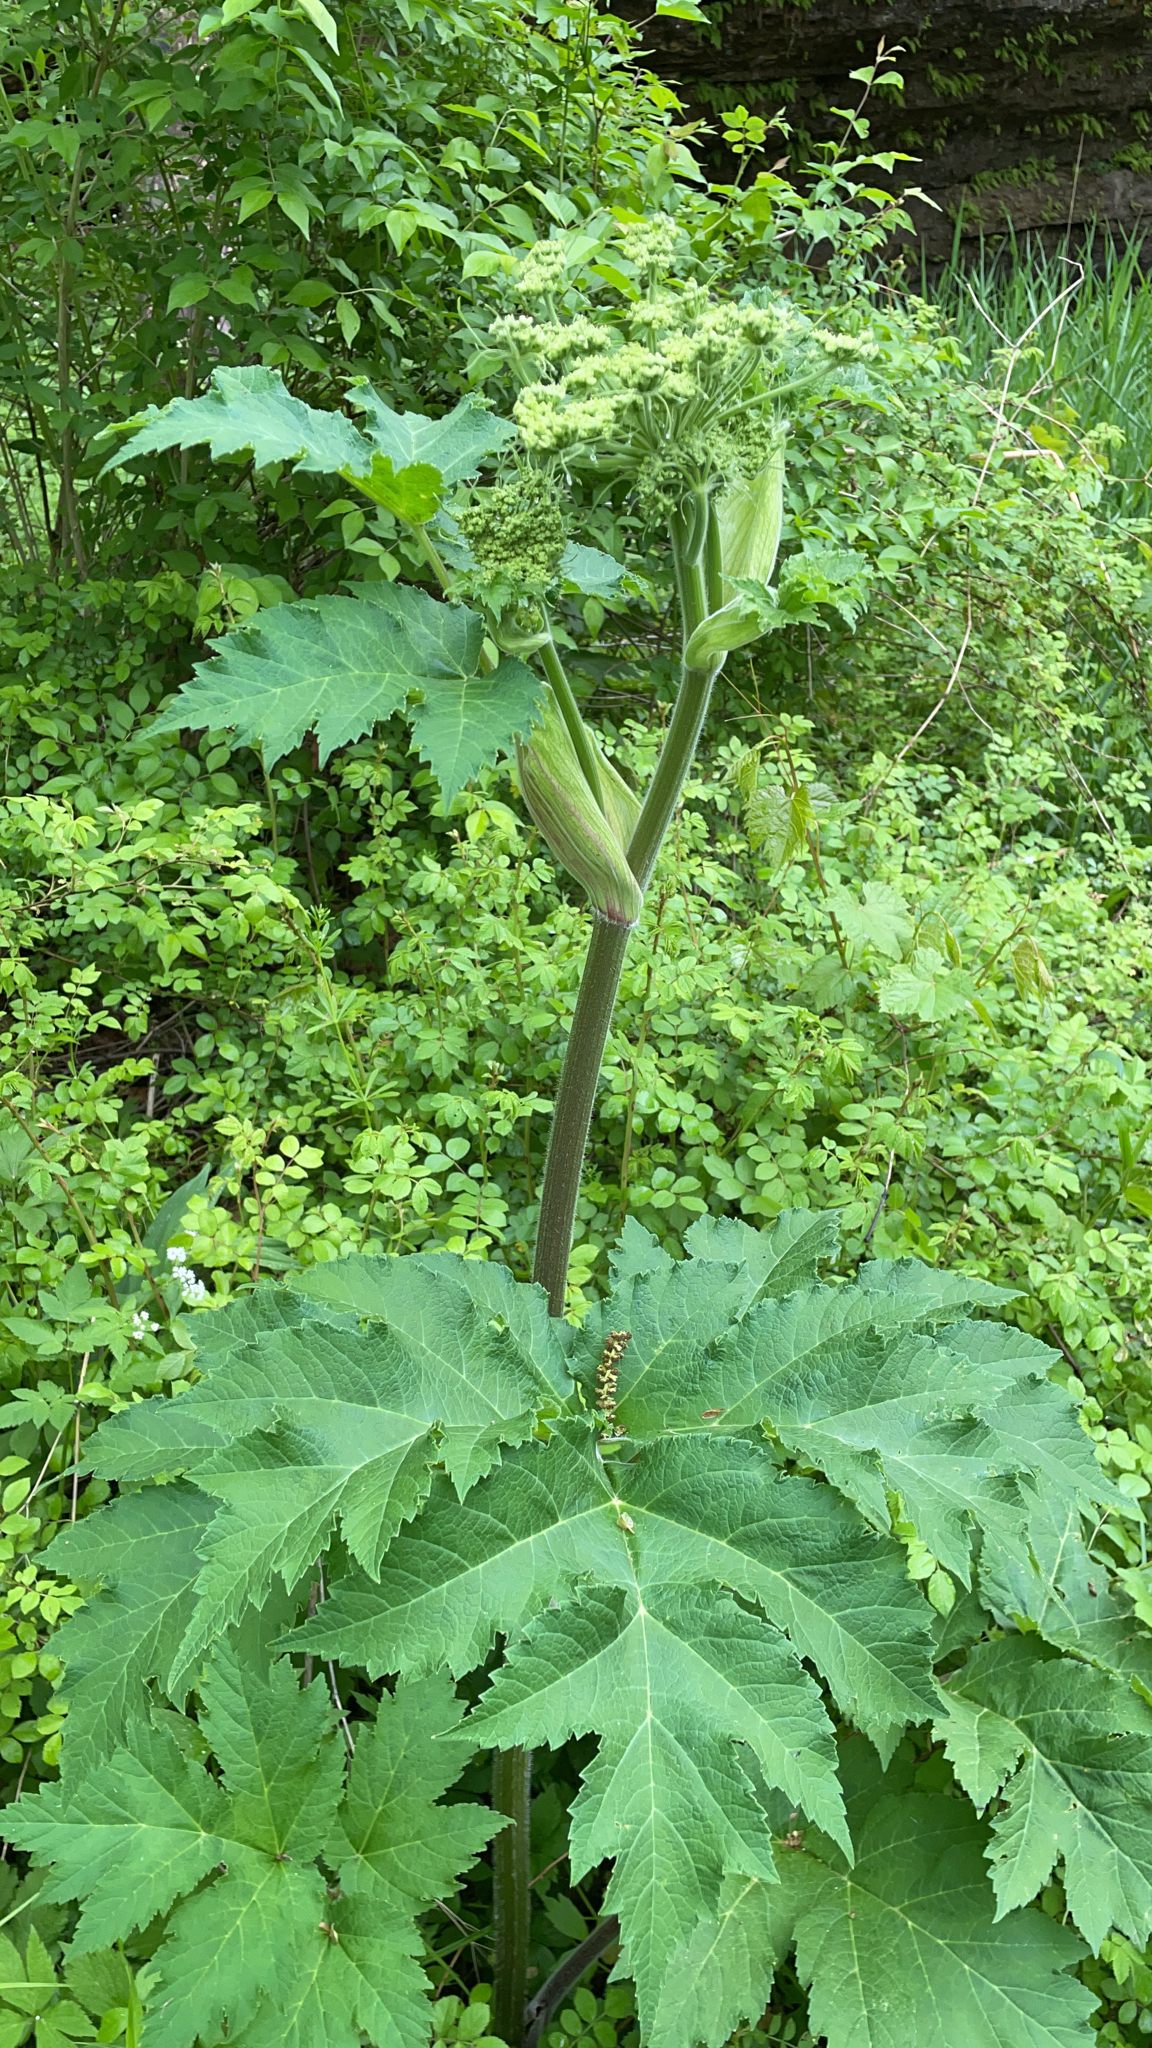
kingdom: Plantae
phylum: Tracheophyta
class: Magnoliopsida
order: Apiales
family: Apiaceae
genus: Heracleum
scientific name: Heracleum maximum
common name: American cow parsnip
